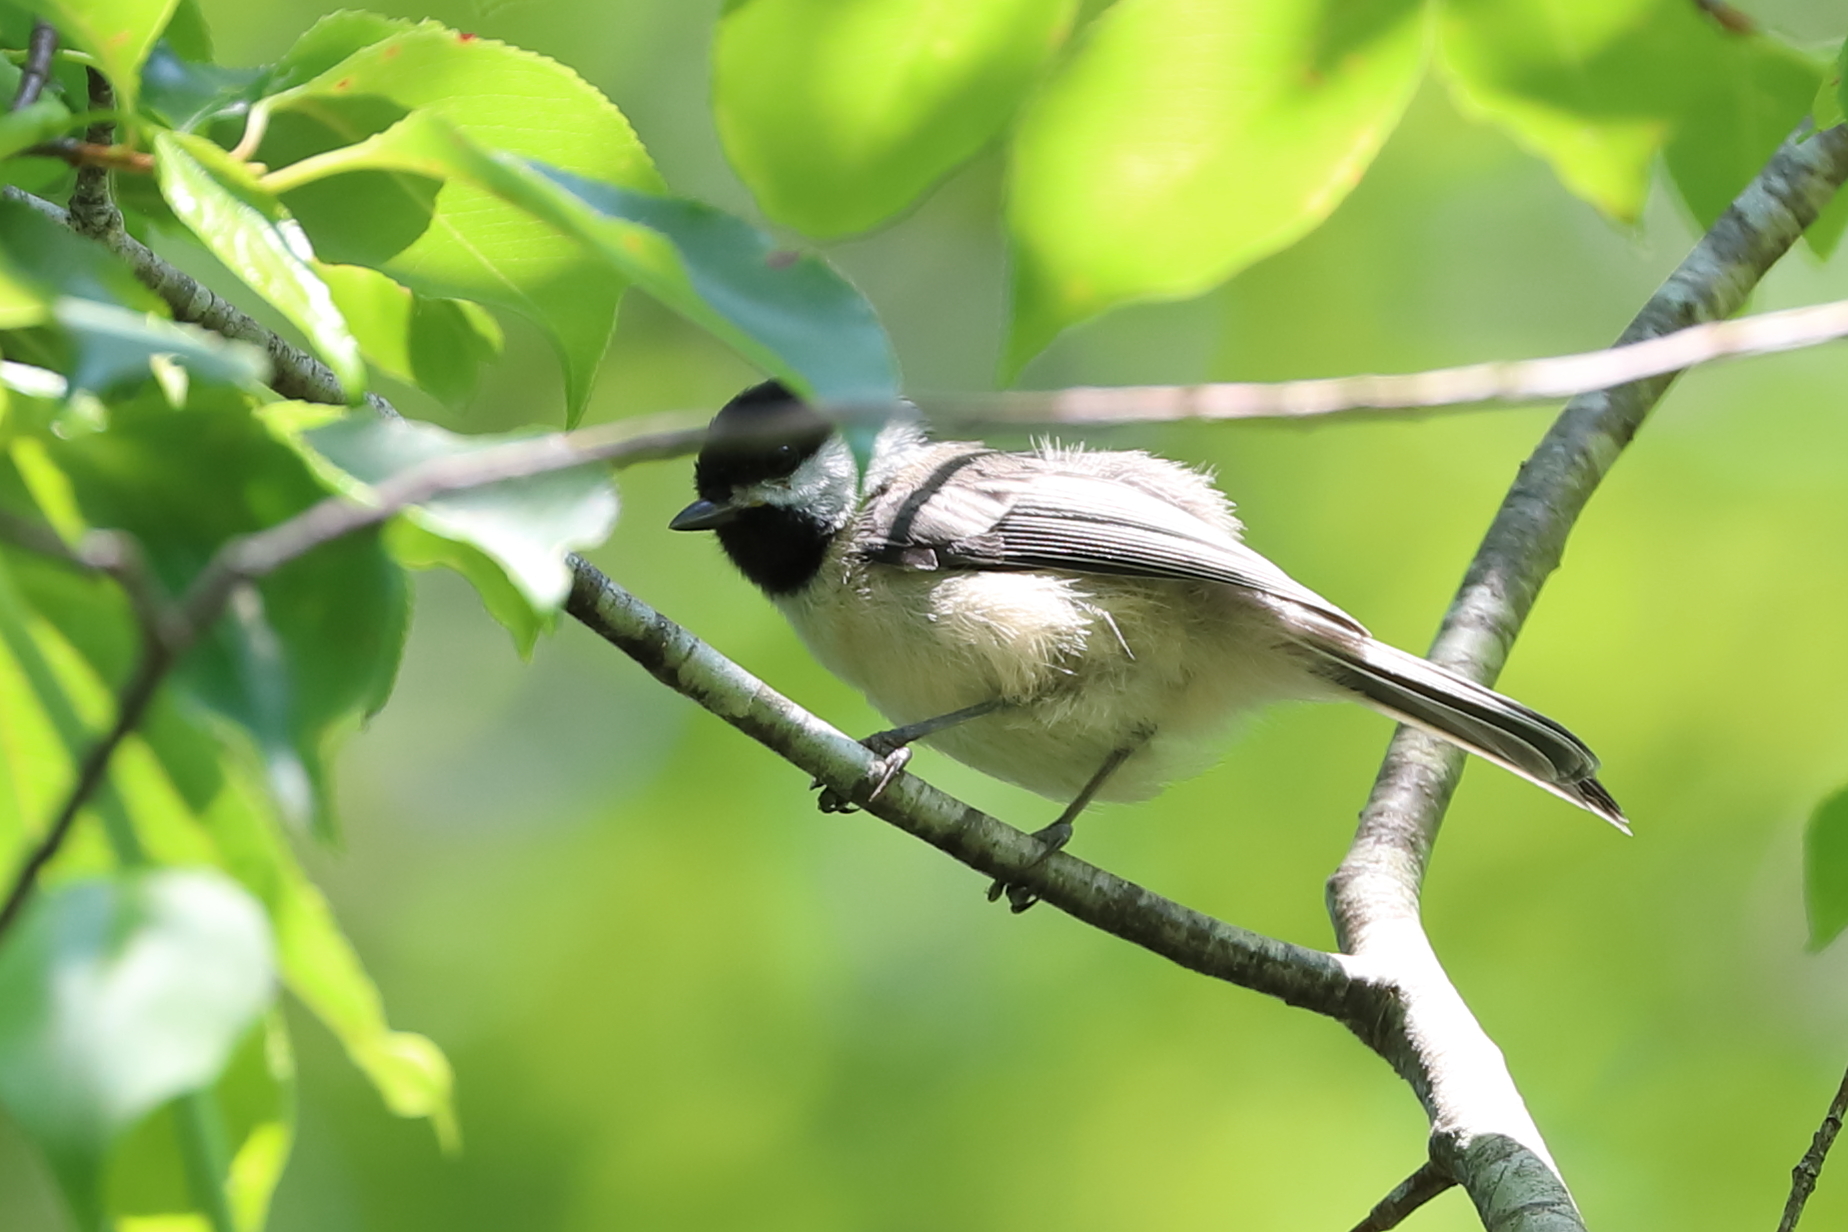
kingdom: Animalia
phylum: Chordata
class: Aves
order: Passeriformes
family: Paridae
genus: Poecile
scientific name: Poecile atricapillus
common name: Black-capped chickadee
